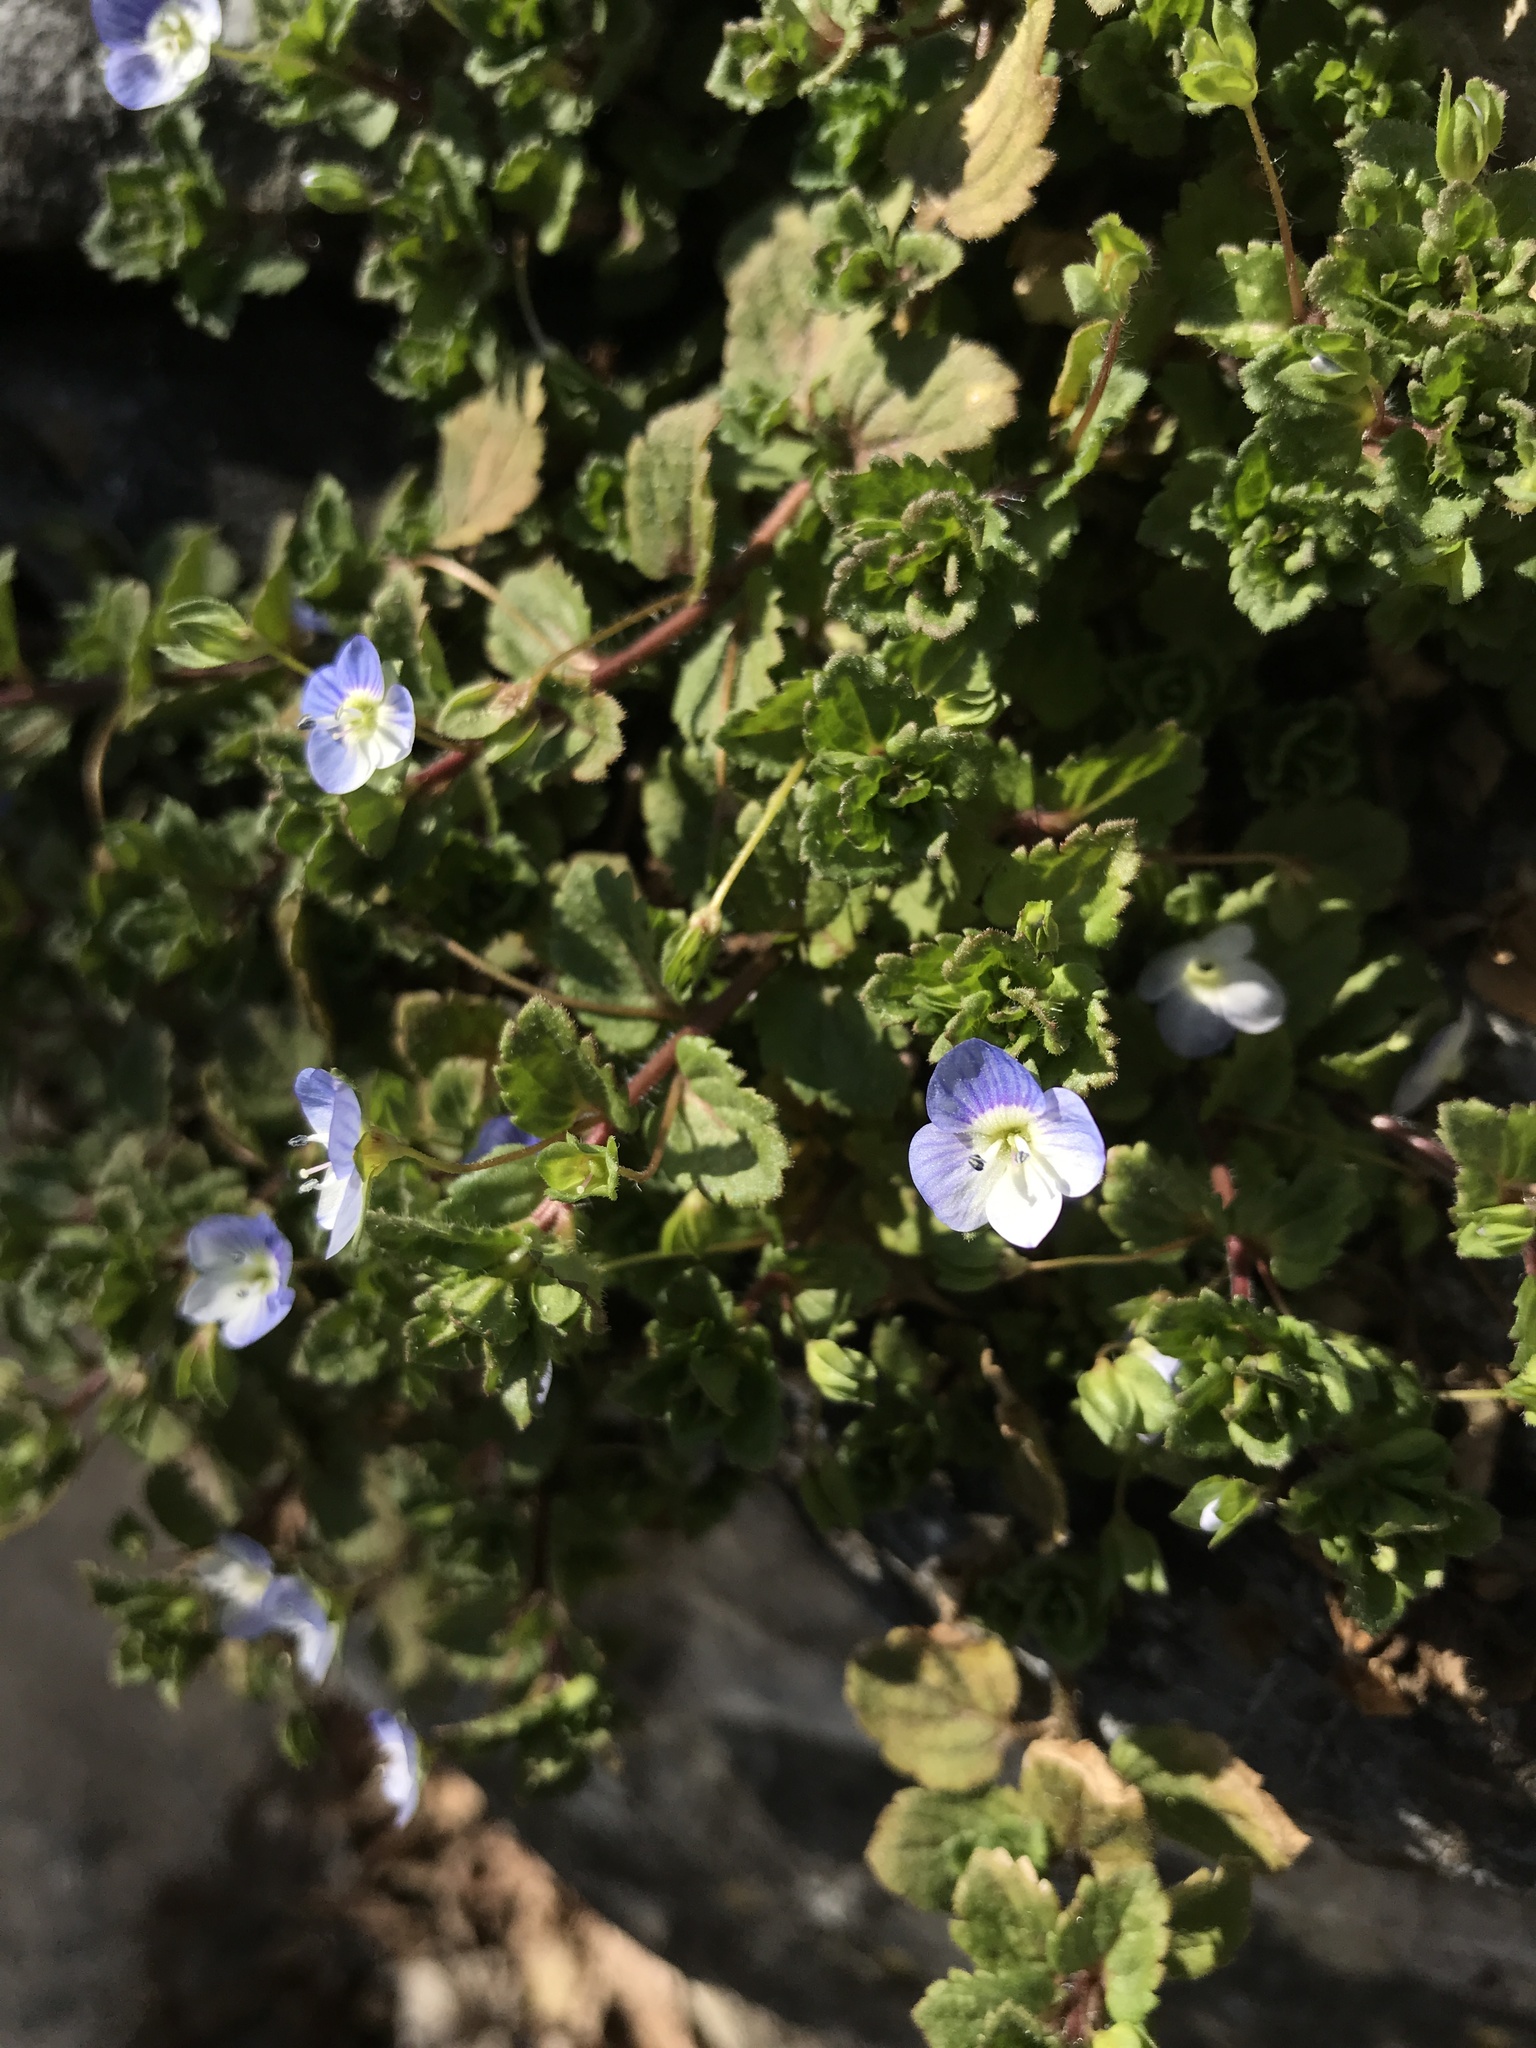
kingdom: Plantae
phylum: Tracheophyta
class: Magnoliopsida
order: Lamiales
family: Plantaginaceae
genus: Veronica
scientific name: Veronica persica
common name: Common field-speedwell
